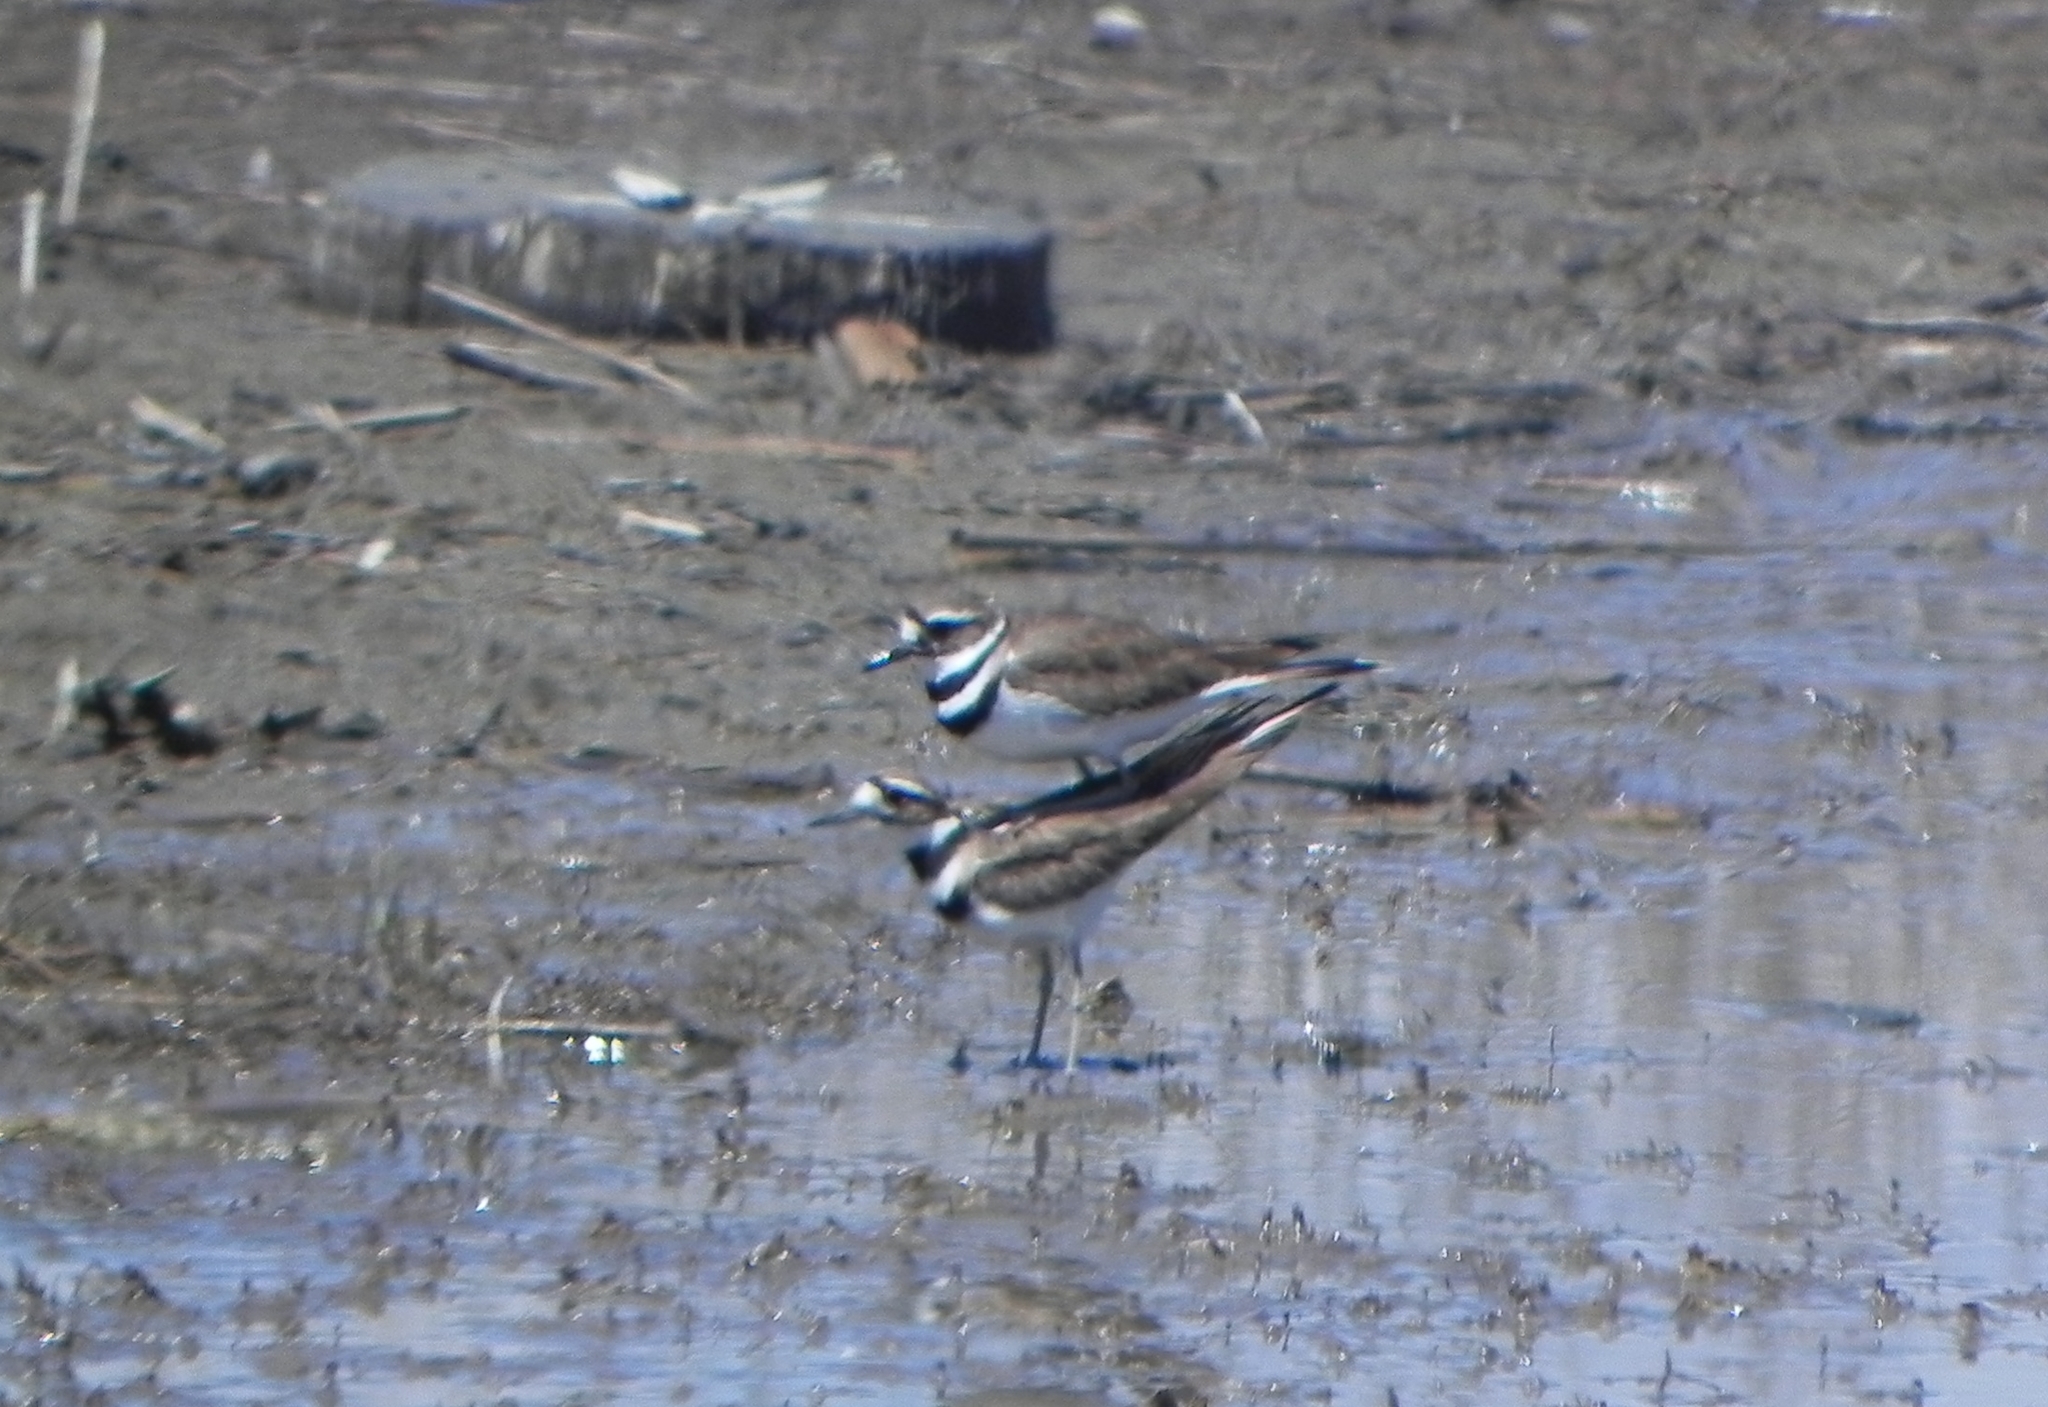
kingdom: Animalia
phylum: Chordata
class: Aves
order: Charadriiformes
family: Charadriidae
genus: Charadrius
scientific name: Charadrius vociferus
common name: Killdeer
